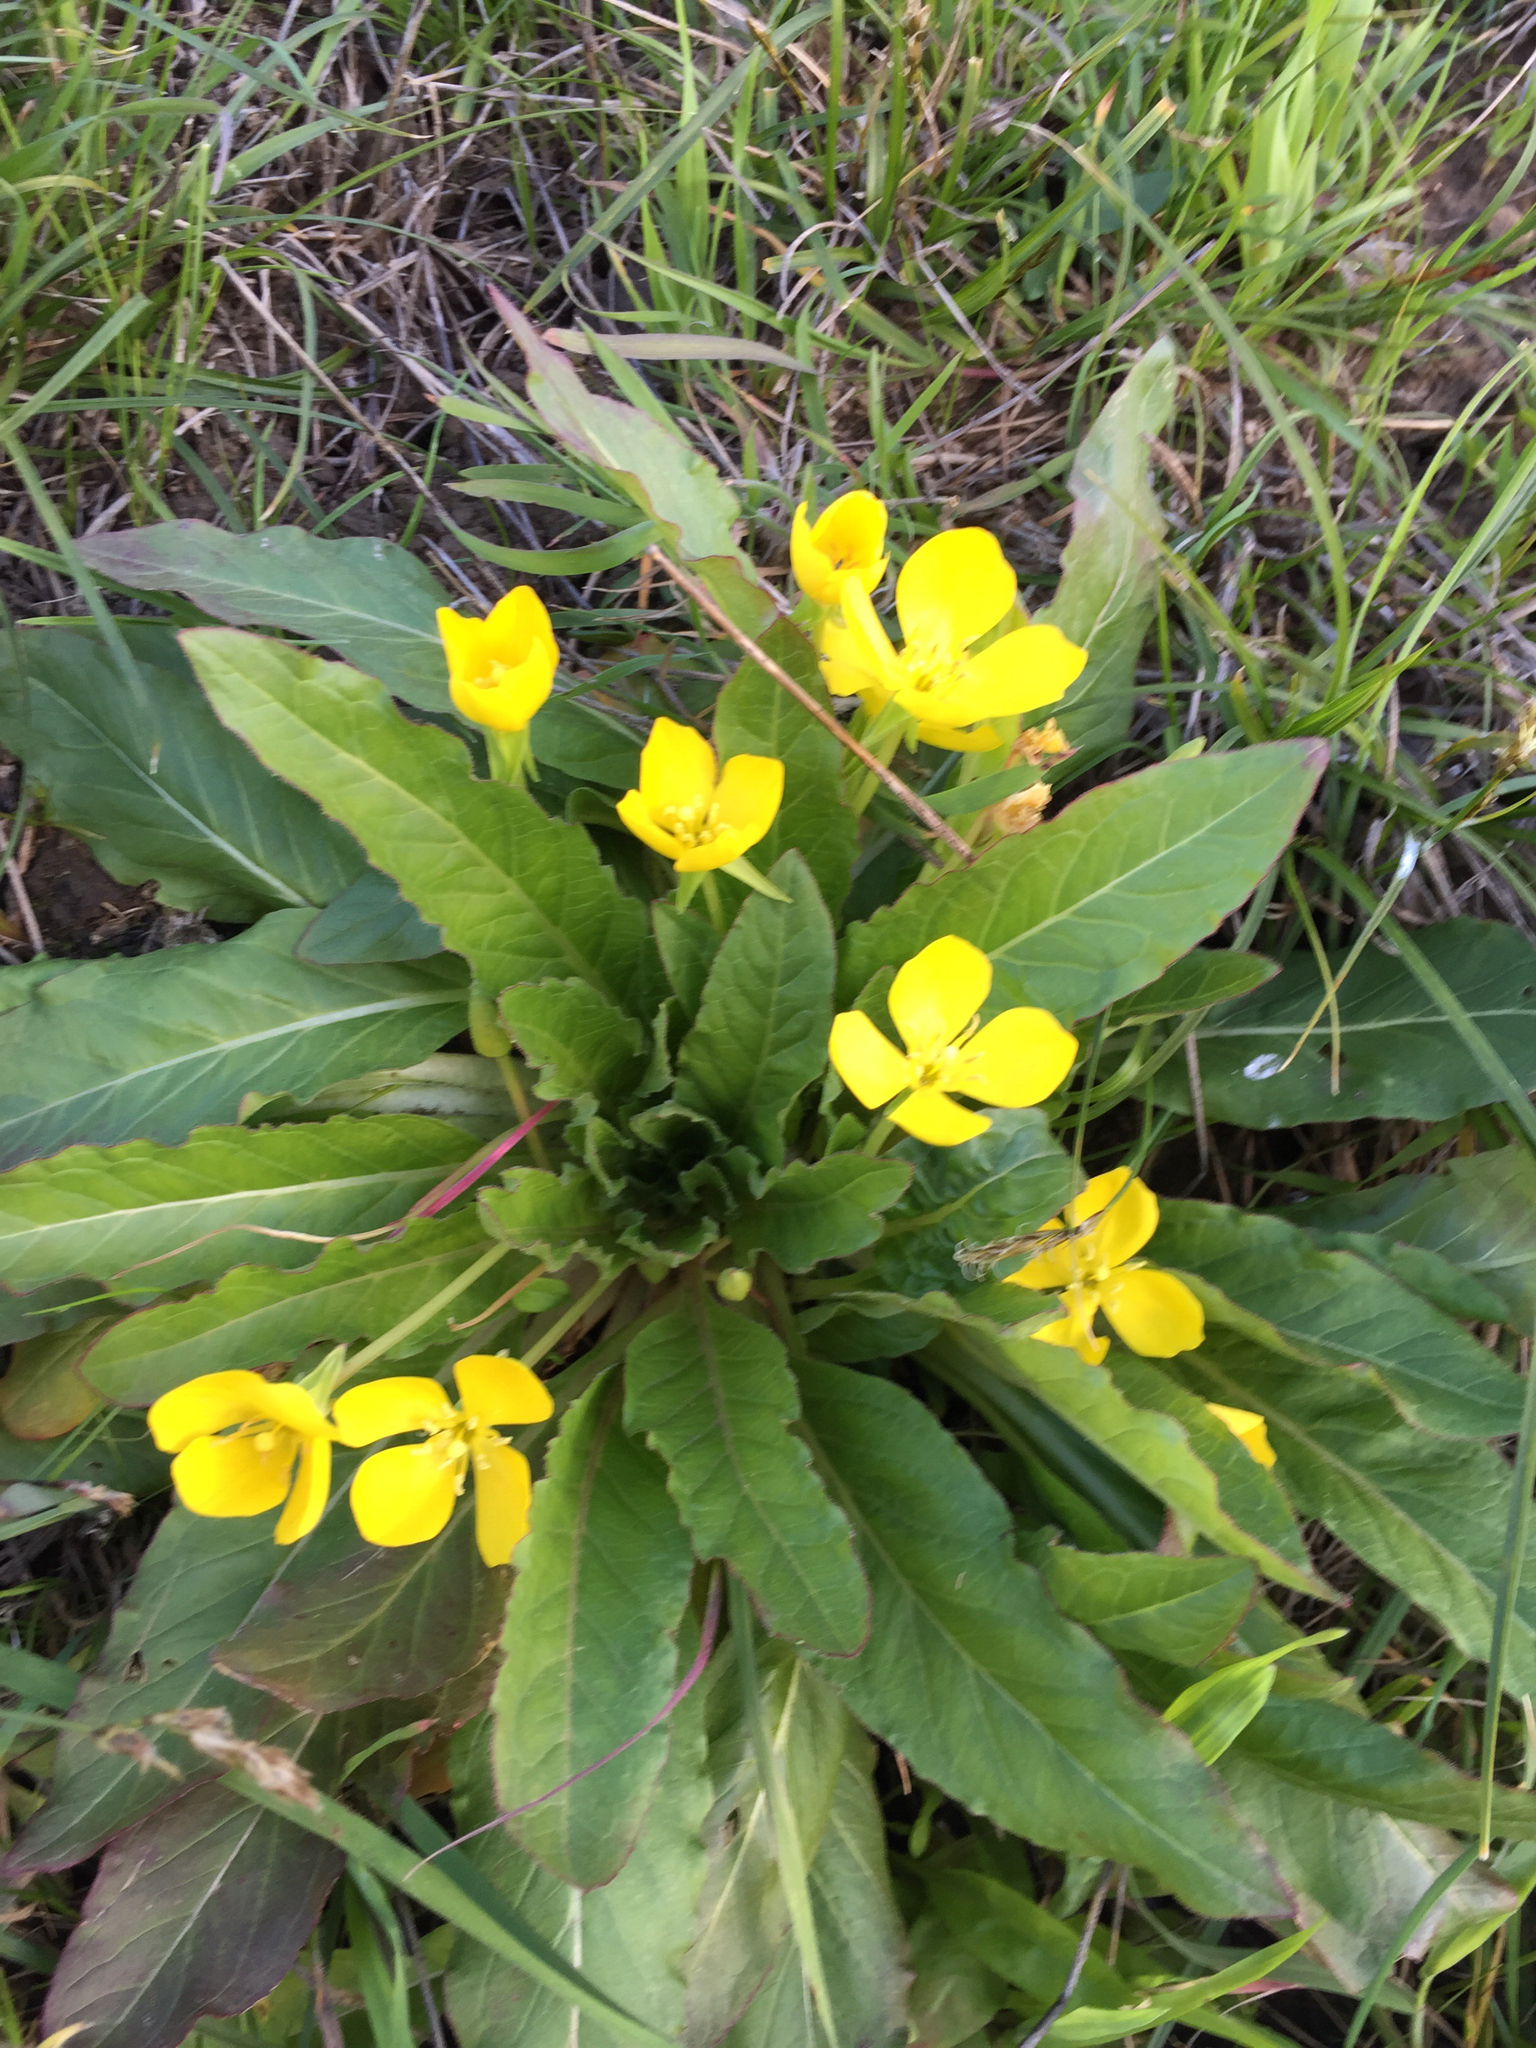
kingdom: Plantae
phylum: Tracheophyta
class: Magnoliopsida
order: Myrtales
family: Onagraceae
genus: Taraxia
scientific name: Taraxia ovata
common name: Goldeneggs
